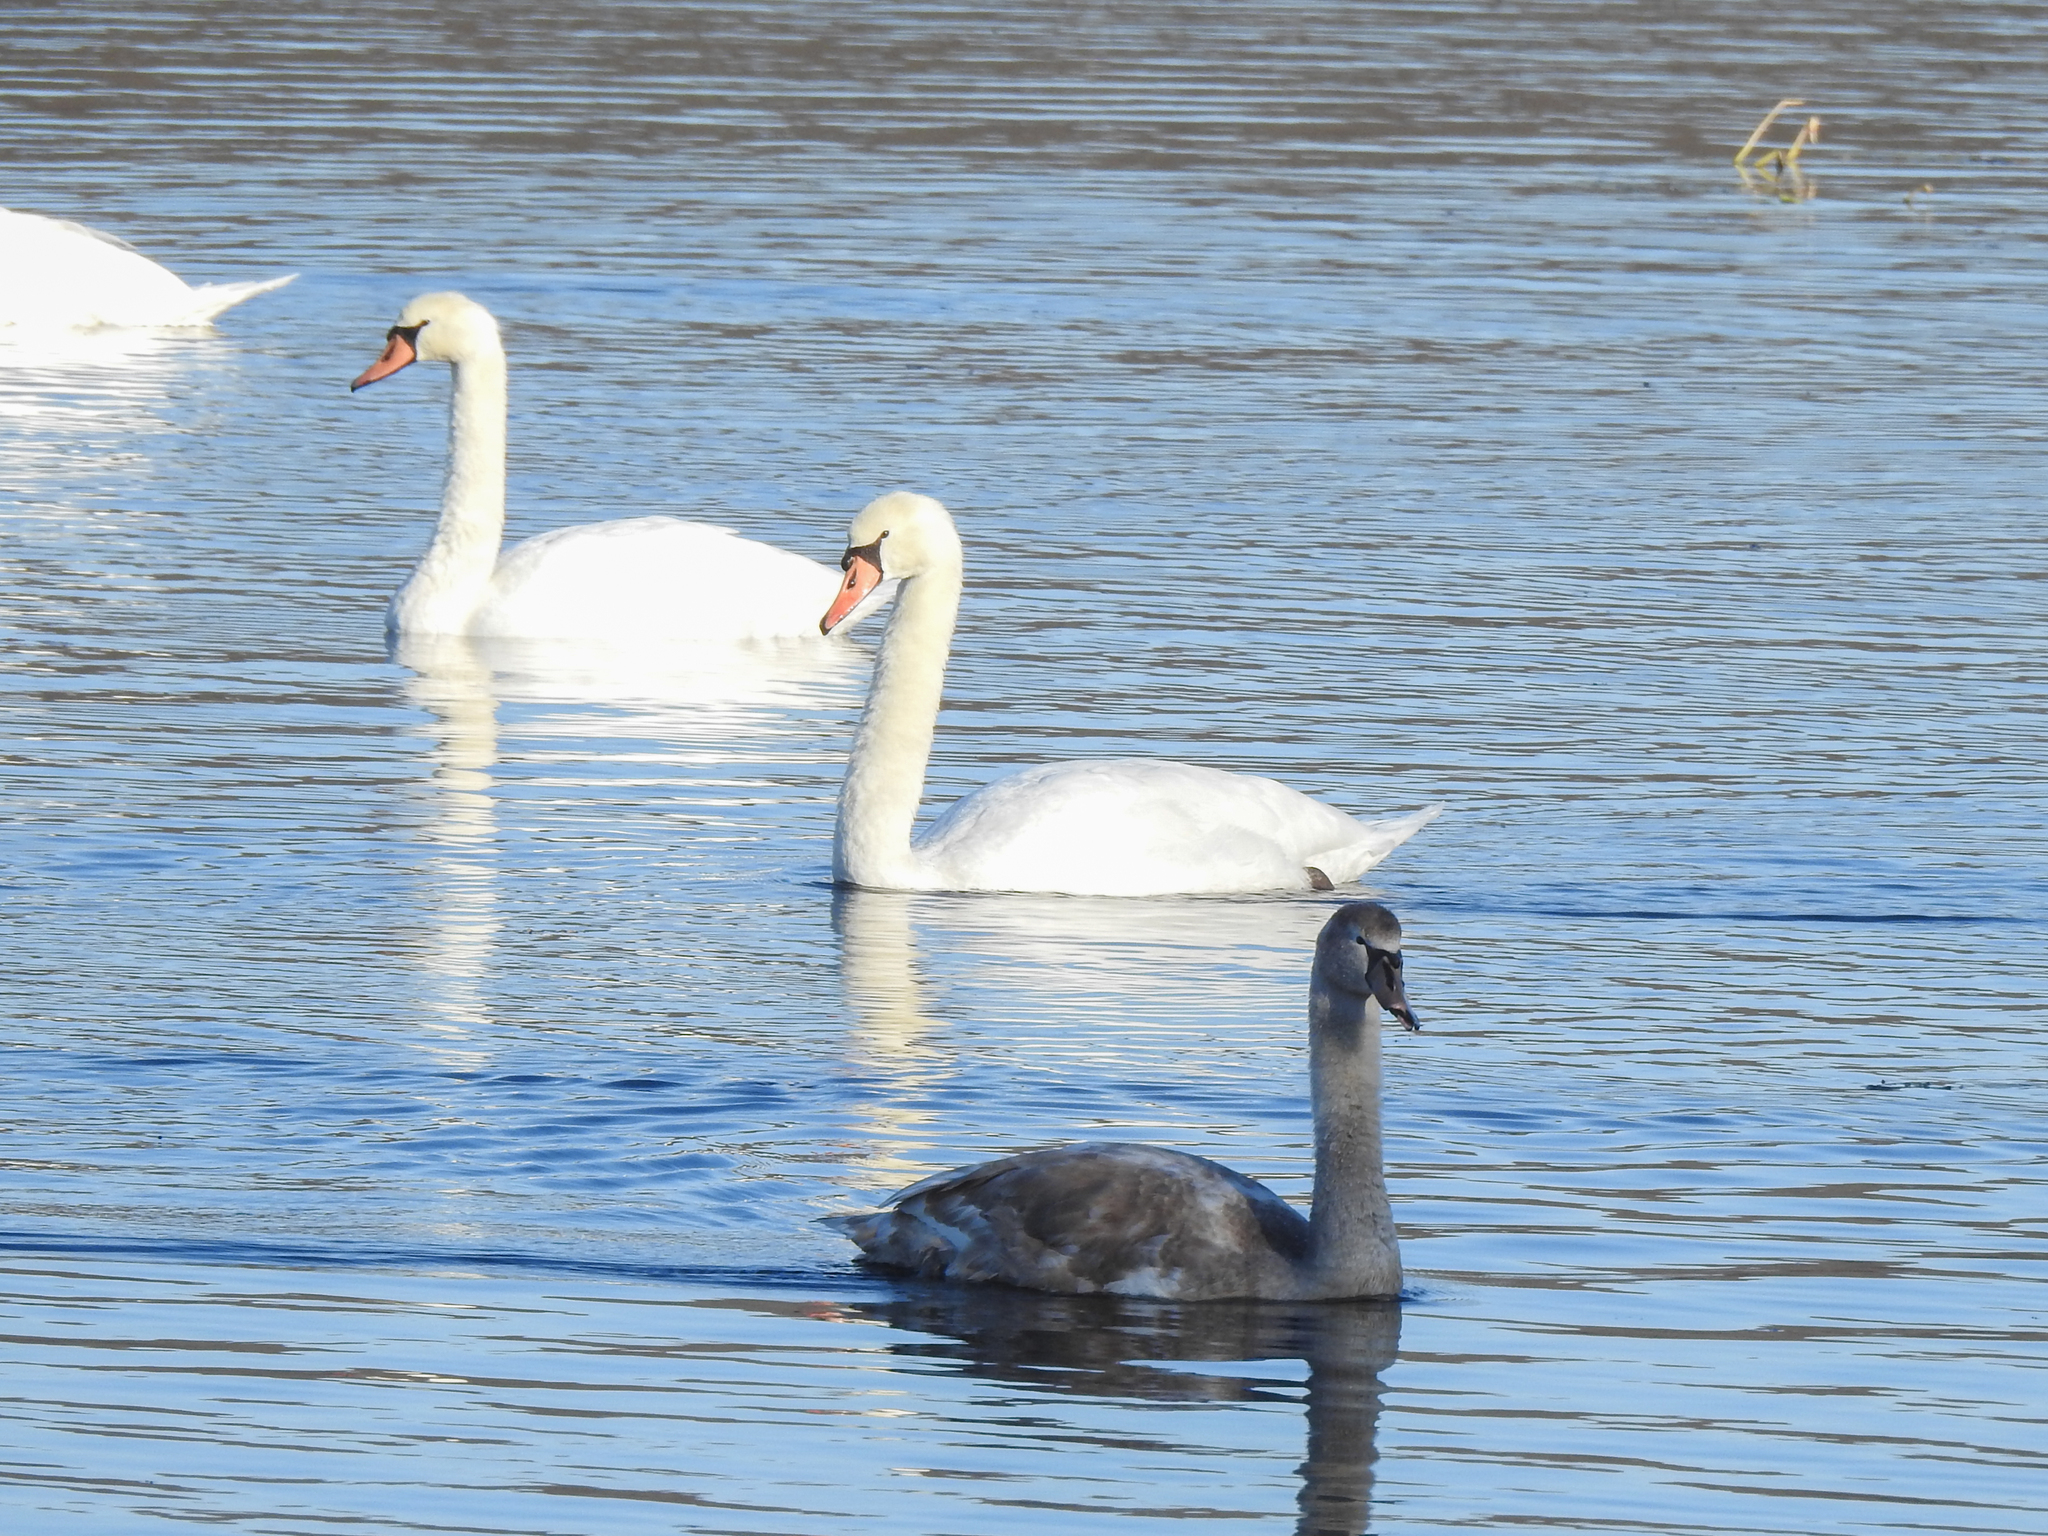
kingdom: Animalia
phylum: Chordata
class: Aves
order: Anseriformes
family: Anatidae
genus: Cygnus
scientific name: Cygnus olor
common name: Mute swan
